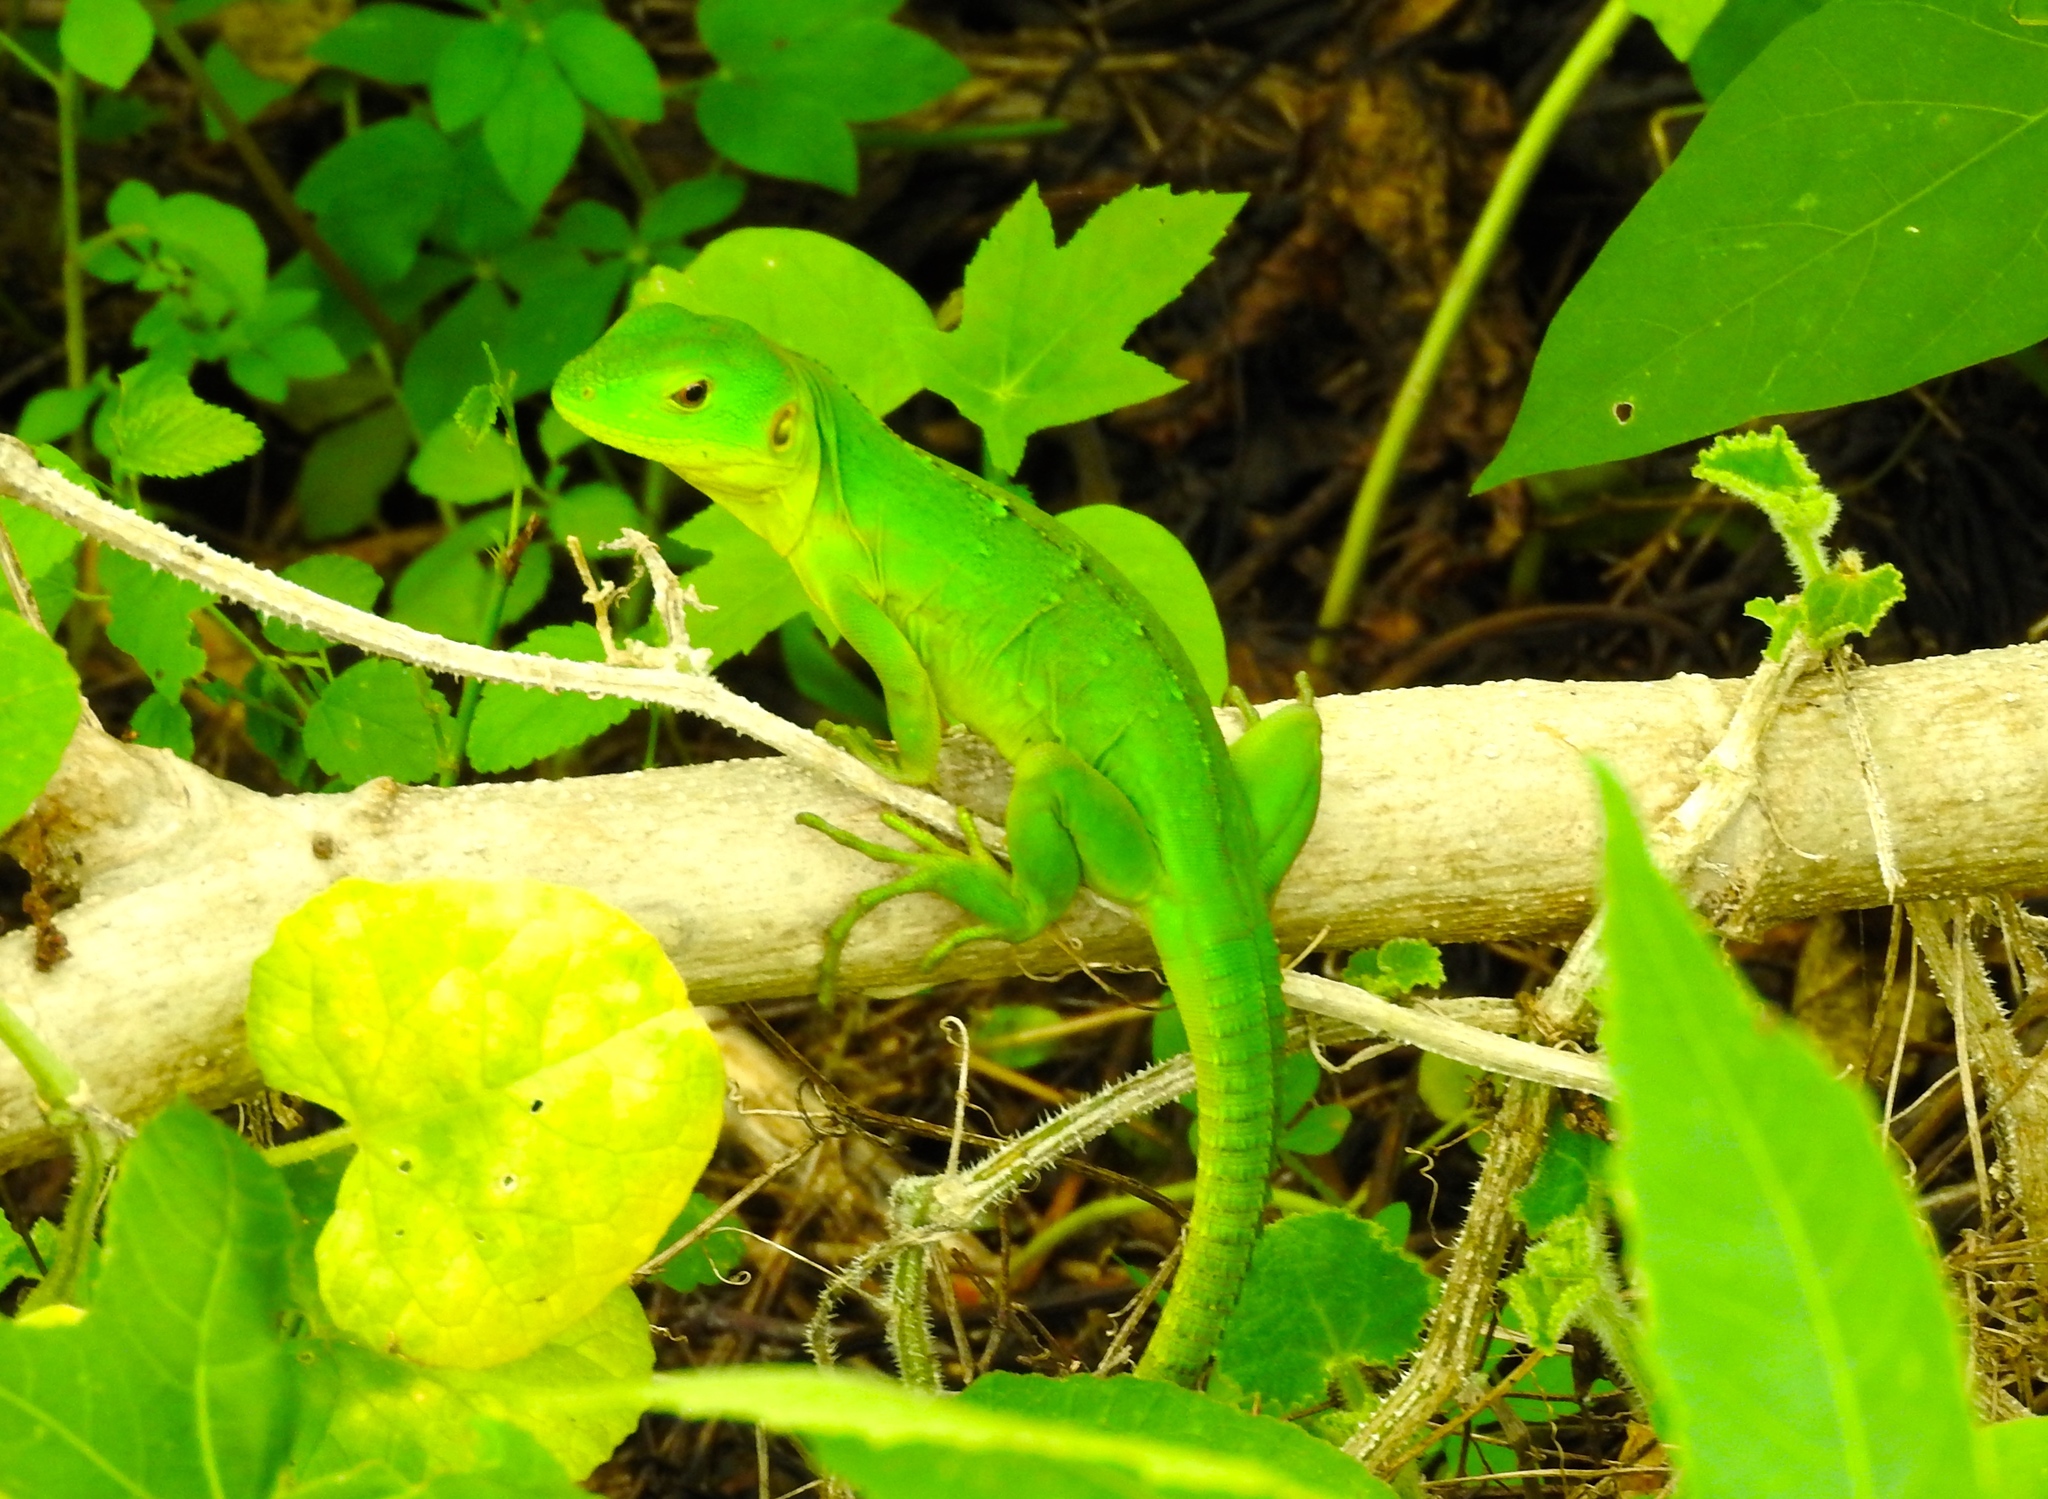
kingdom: Animalia
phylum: Chordata
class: Squamata
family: Iguanidae
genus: Ctenosaura
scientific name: Ctenosaura pectinata
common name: Guerreran spiny-tailed iguana
